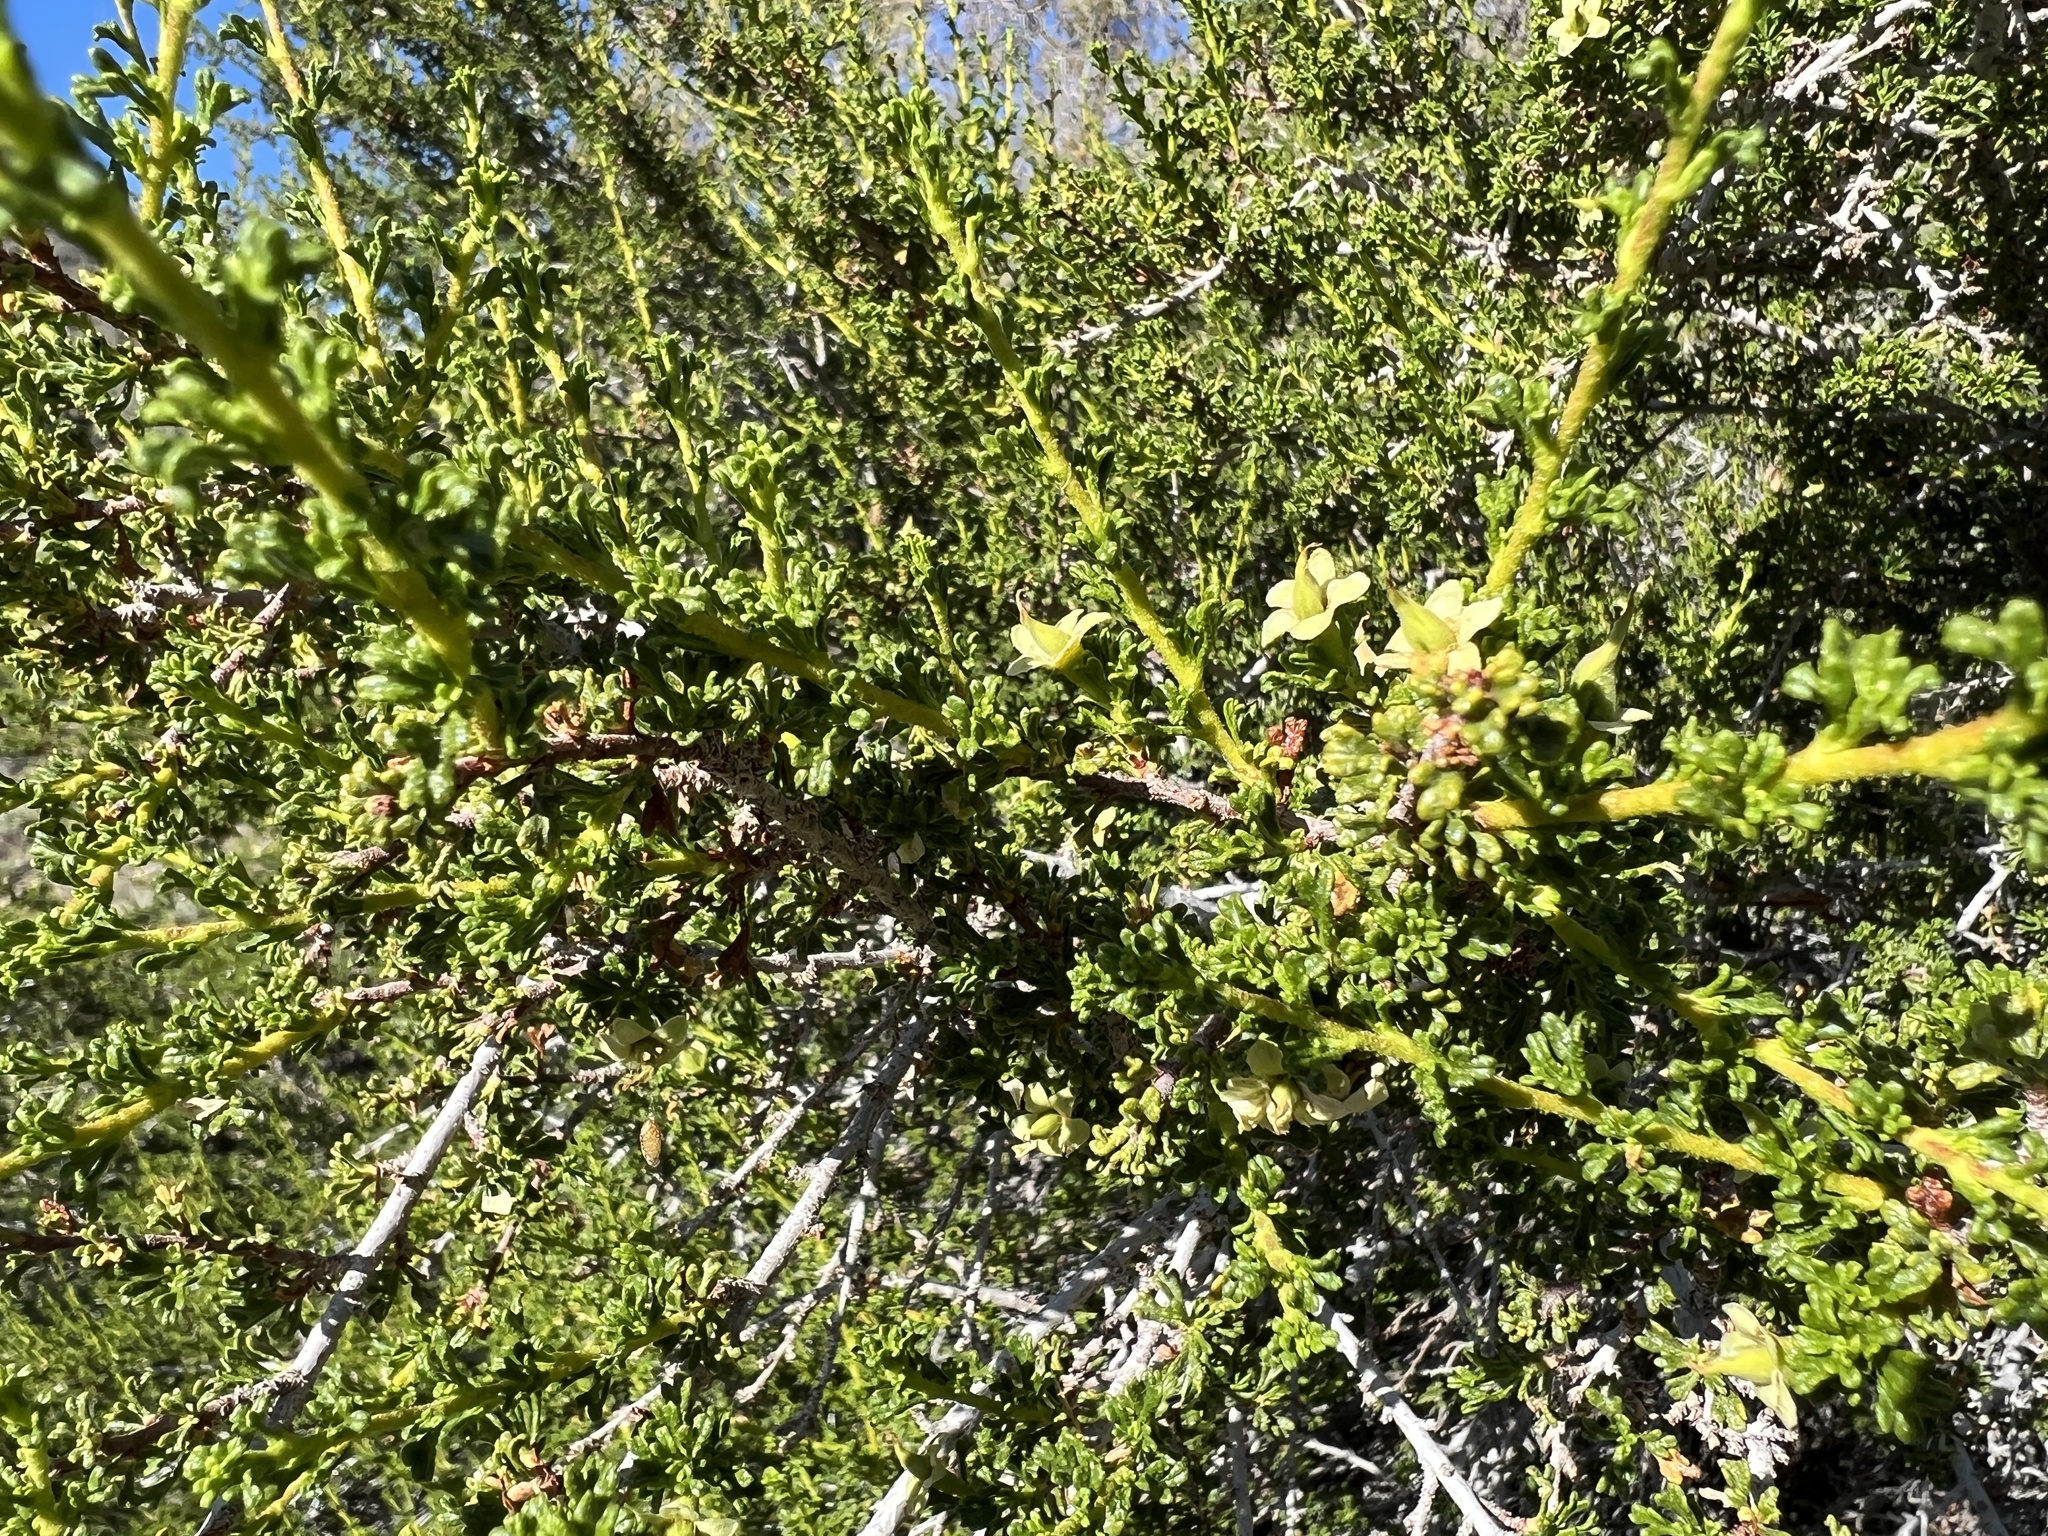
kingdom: Plantae
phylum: Tracheophyta
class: Magnoliopsida
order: Rosales
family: Rosaceae
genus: Purshia
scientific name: Purshia glandulosa
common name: Desert bitterbrush
